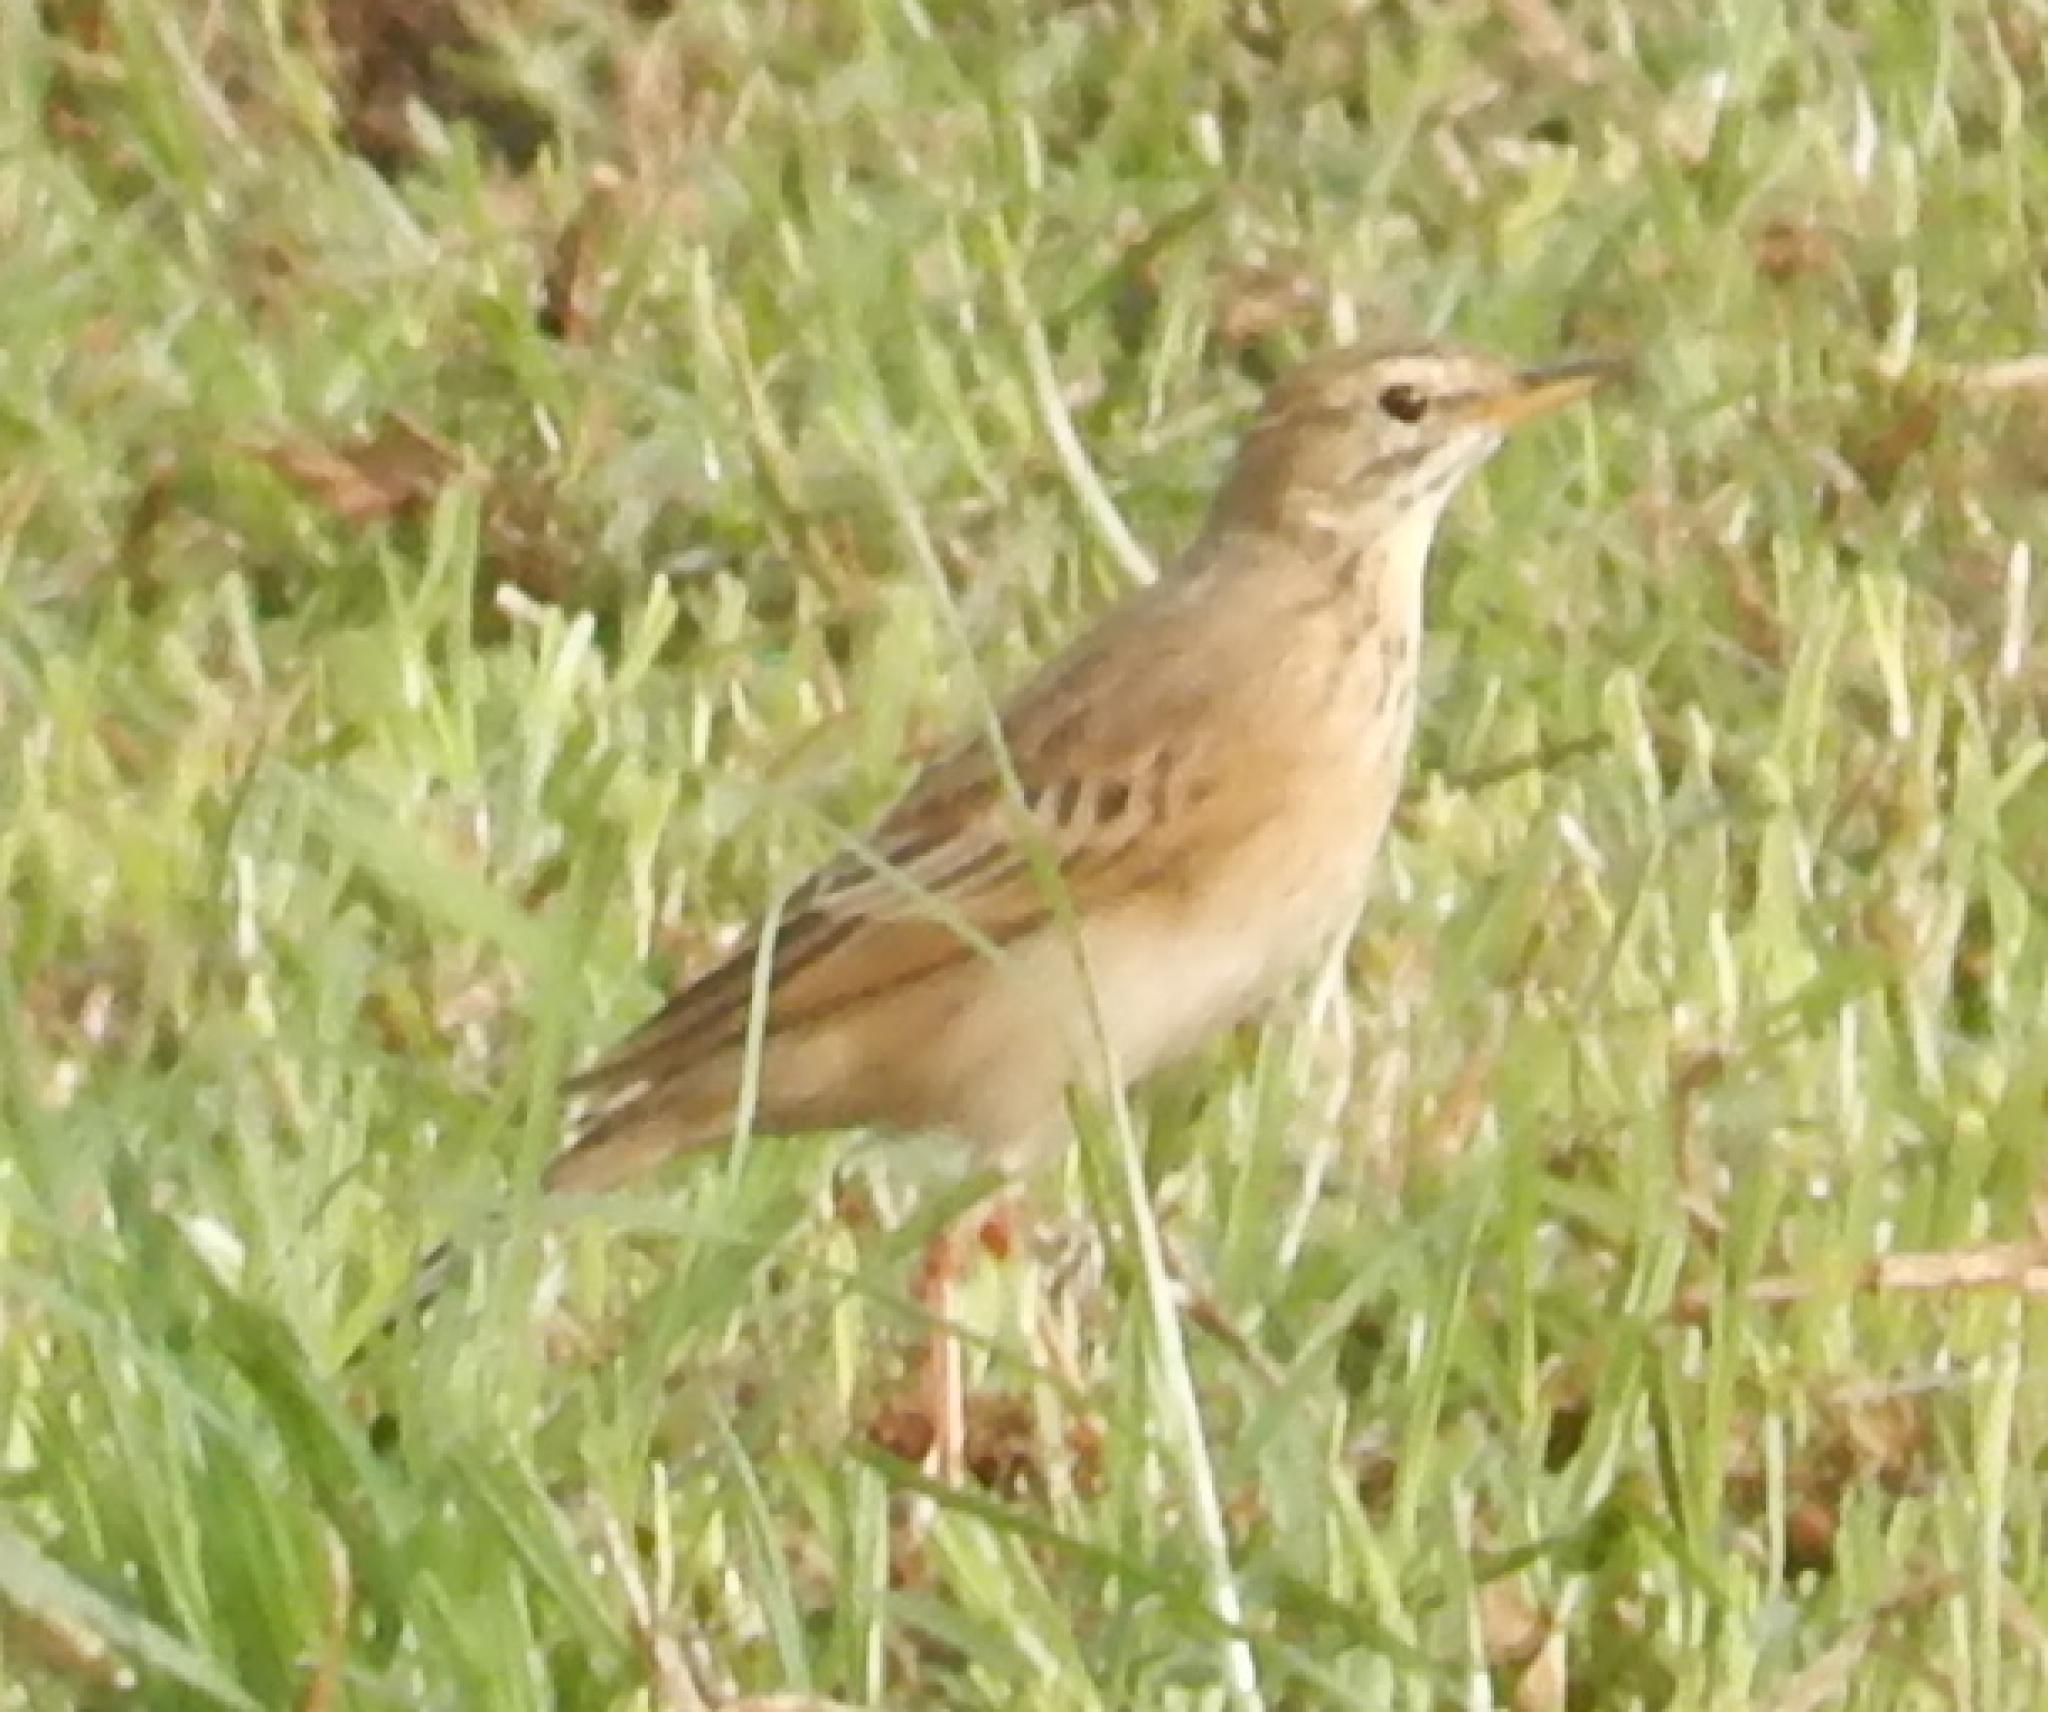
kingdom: Animalia
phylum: Chordata
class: Aves
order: Passeriformes
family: Motacillidae
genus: Anthus
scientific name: Anthus leucophrys
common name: Plain-backed pipit
